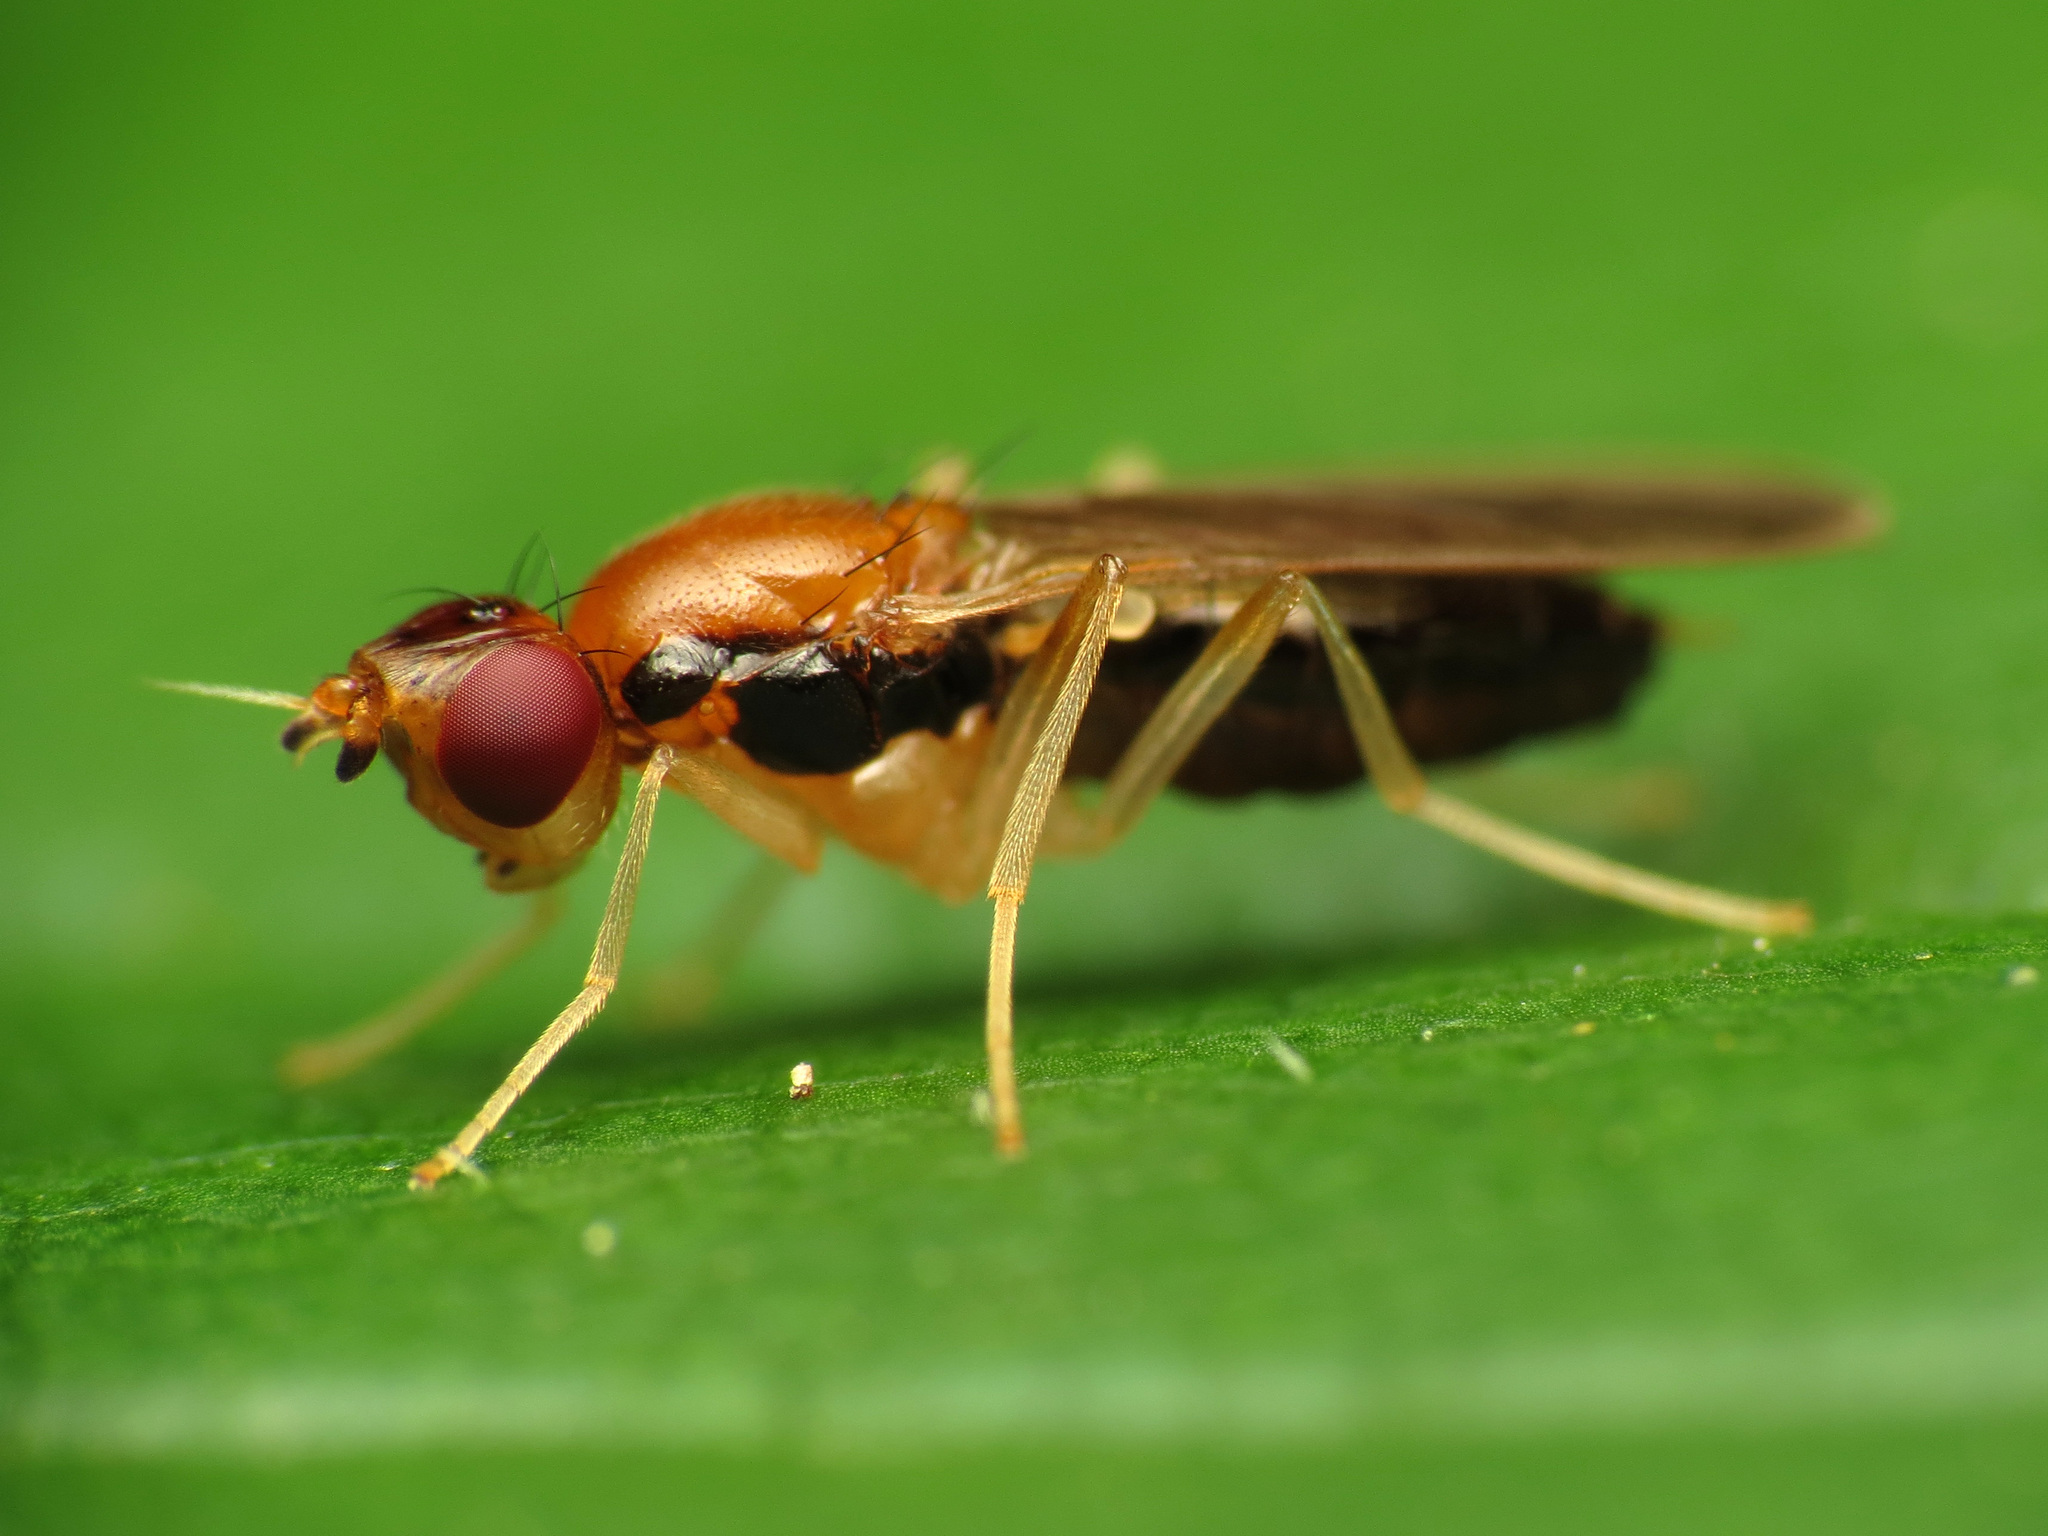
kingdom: Animalia
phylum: Arthropoda
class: Insecta
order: Diptera
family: Psilidae
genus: Psila
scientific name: Psila lateralis
